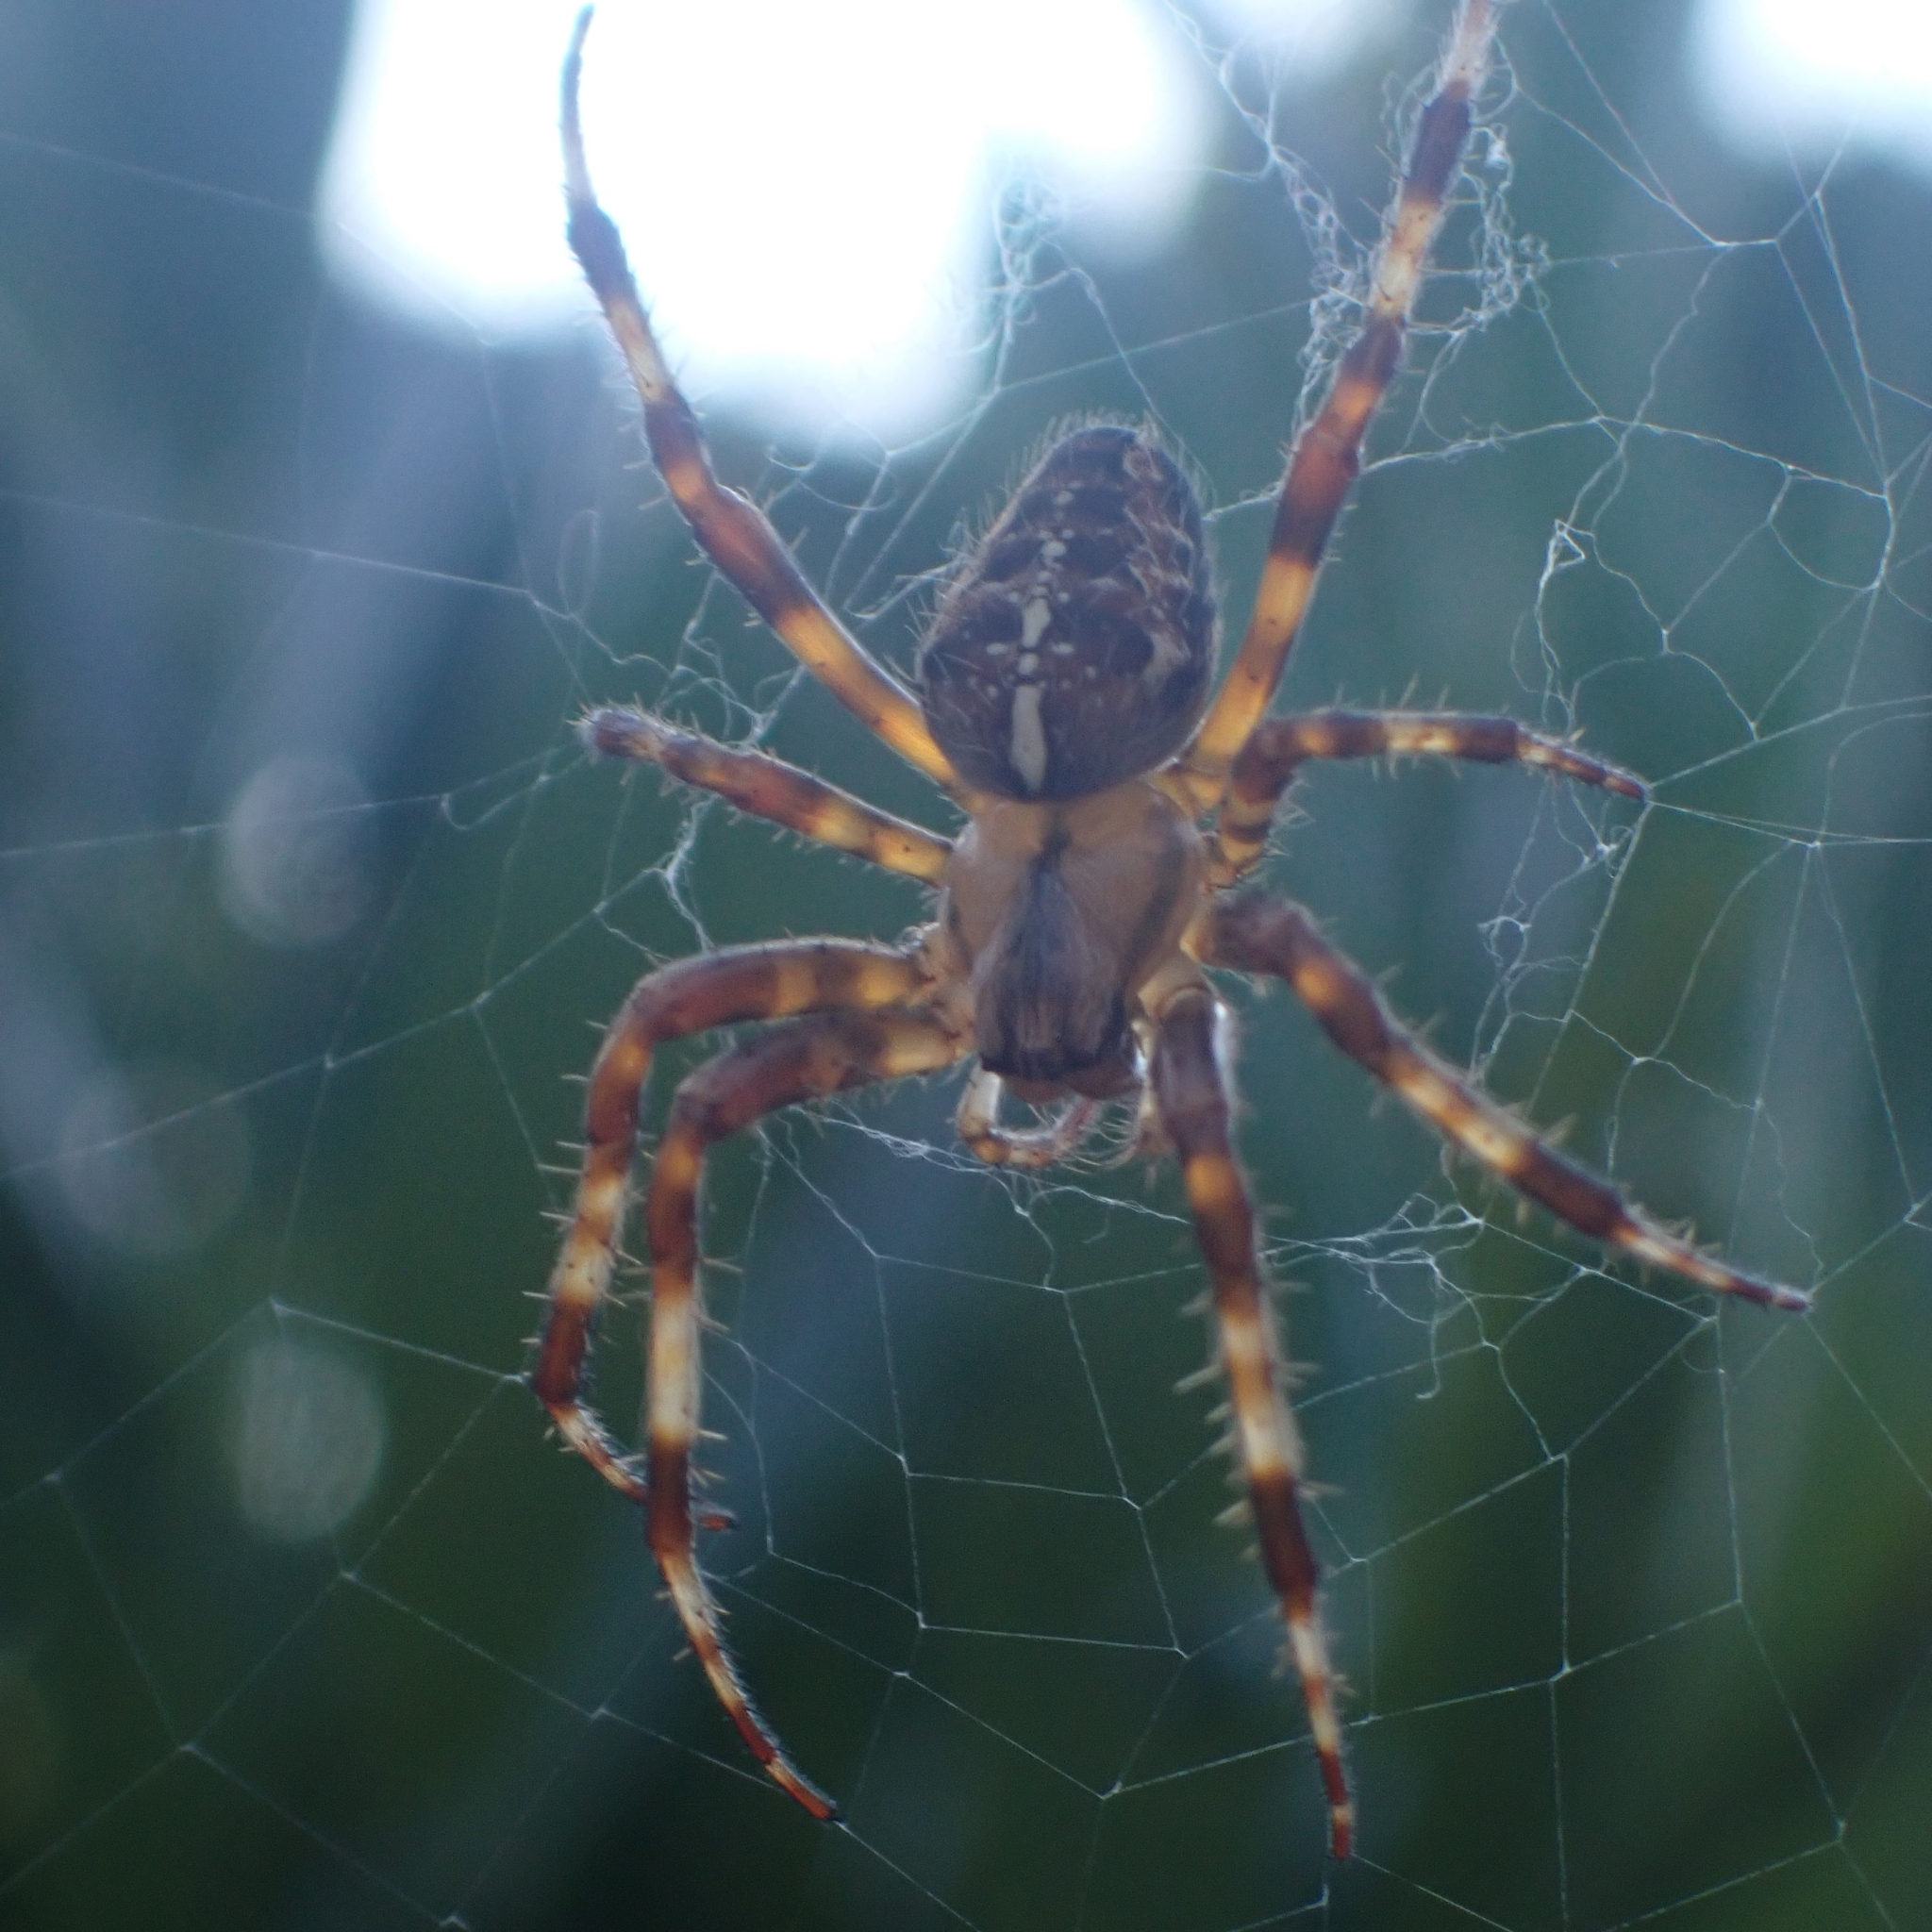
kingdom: Animalia
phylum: Arthropoda
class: Arachnida
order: Araneae
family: Araneidae
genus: Araneus
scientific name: Araneus diadematus
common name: Cross orbweaver
